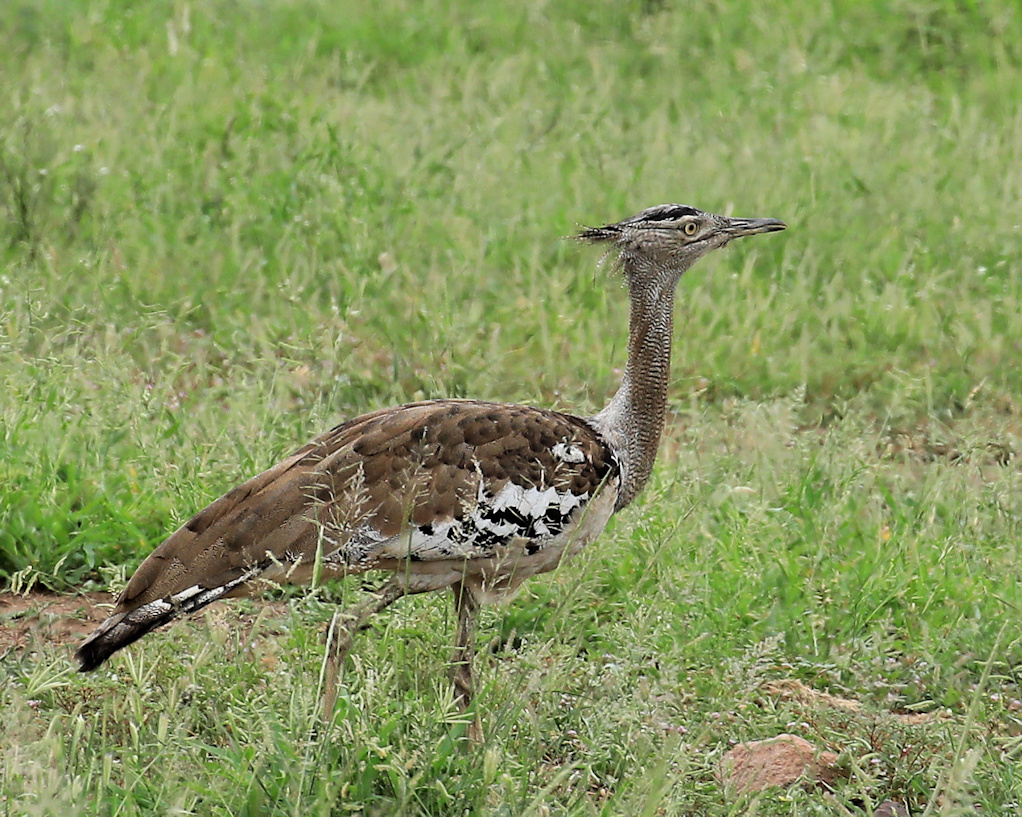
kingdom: Animalia
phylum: Chordata
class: Aves
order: Otidiformes
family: Otididae
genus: Ardeotis
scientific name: Ardeotis kori
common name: Kori bustard
